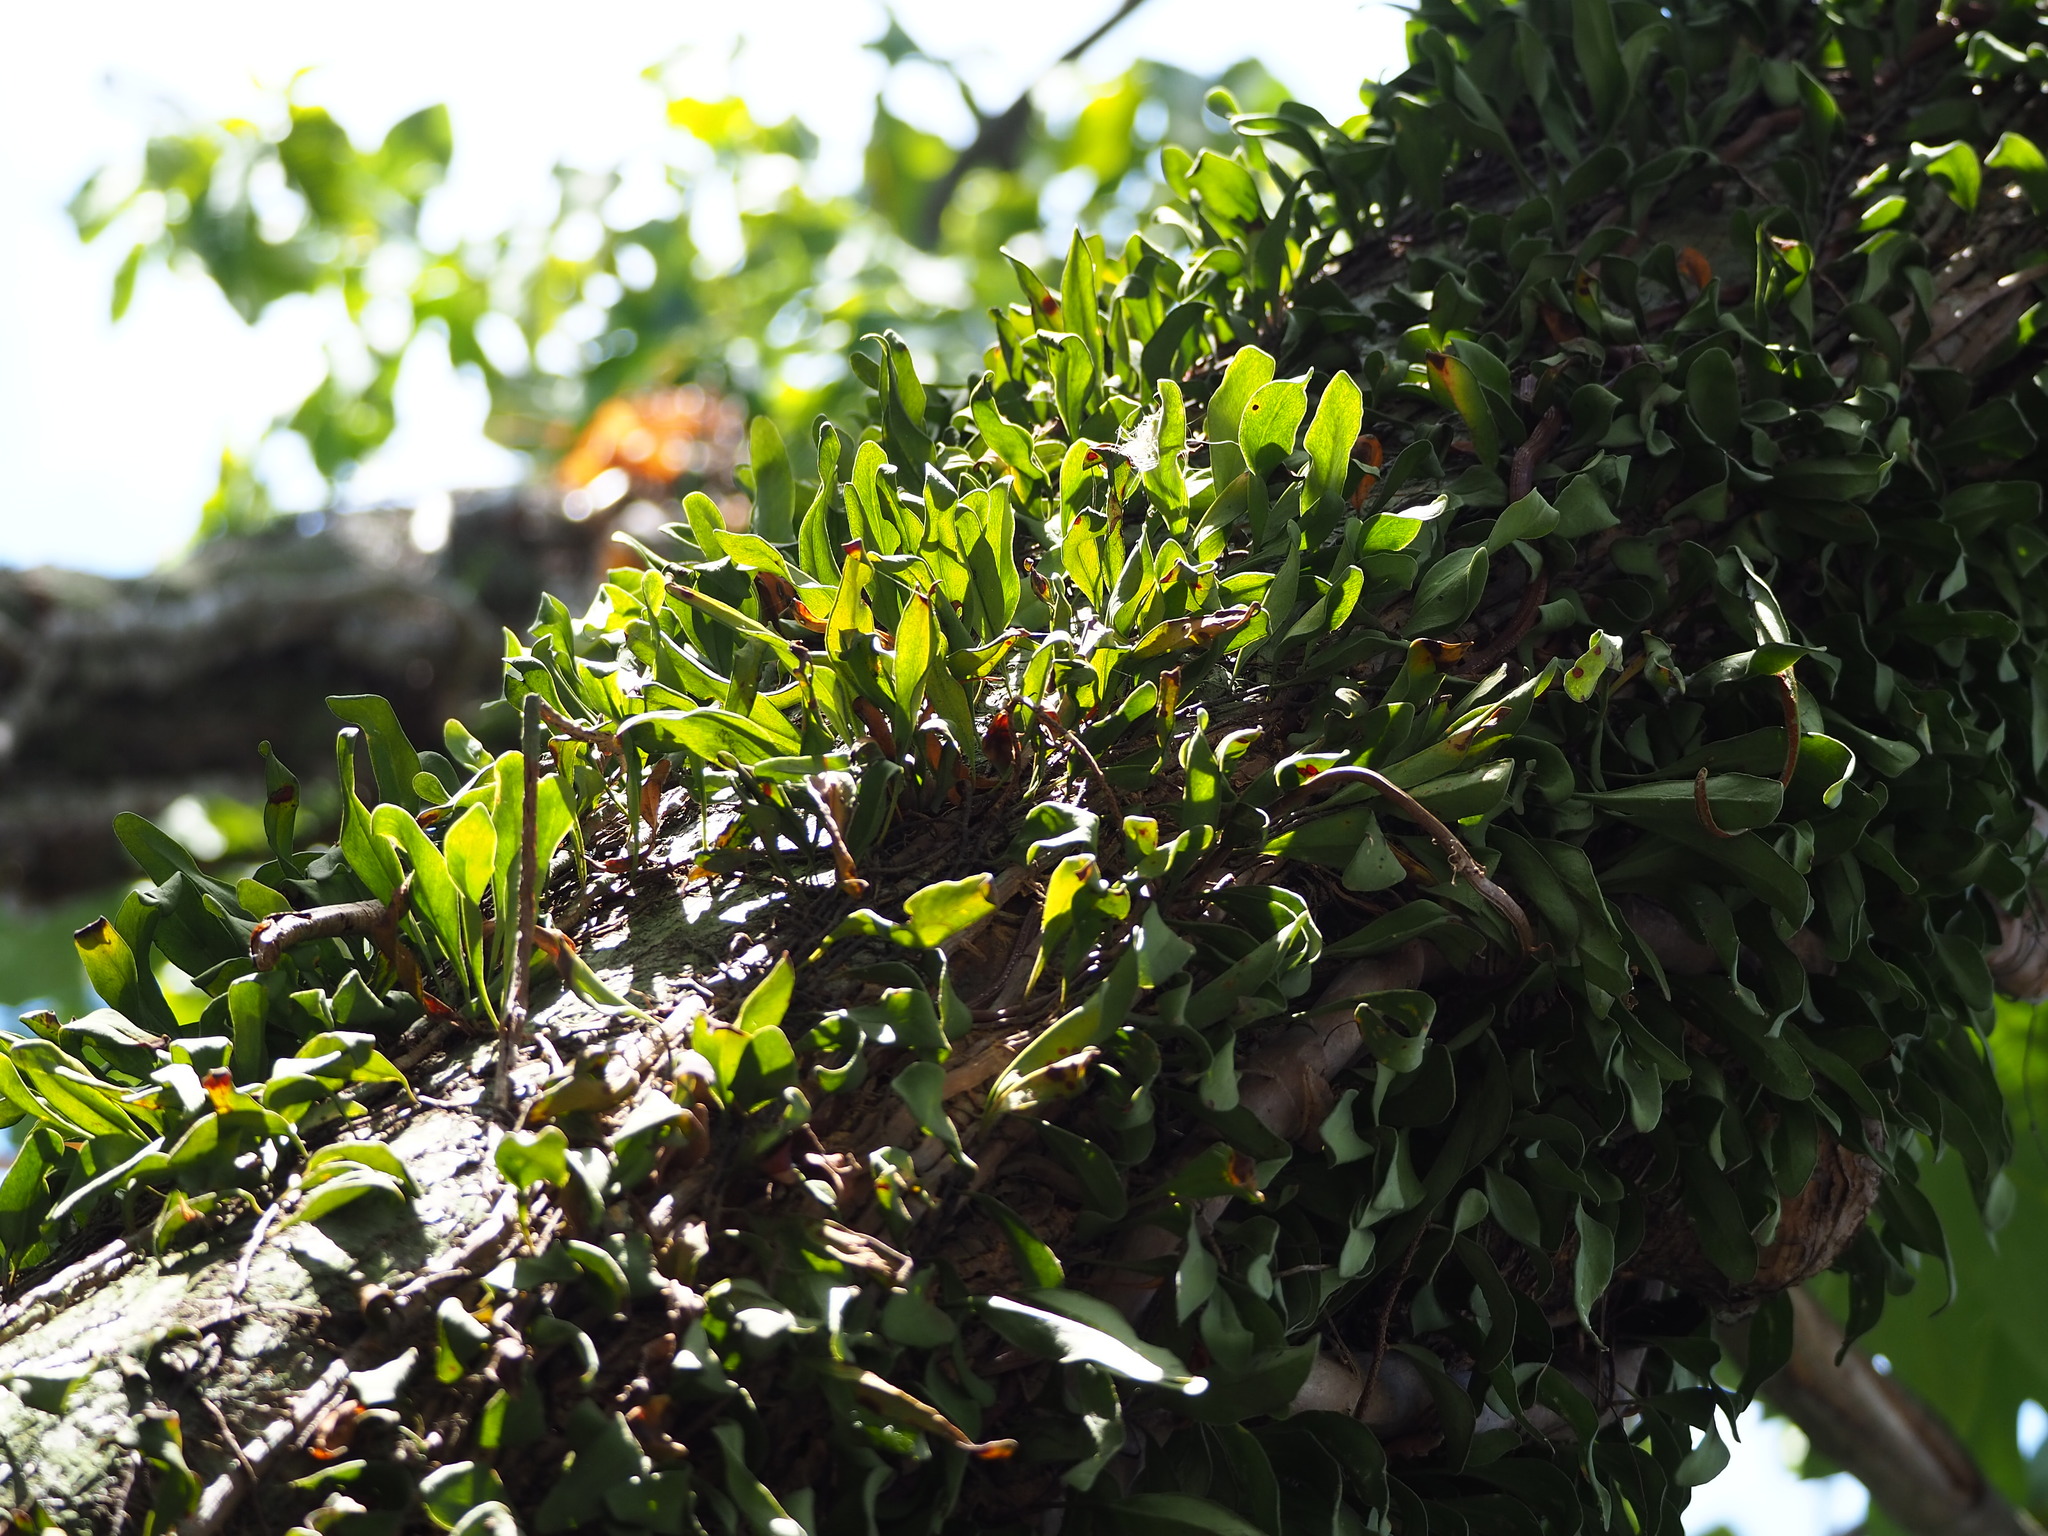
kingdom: Plantae
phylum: Tracheophyta
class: Polypodiopsida
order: Polypodiales
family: Polypodiaceae
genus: Pyrrosia
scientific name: Pyrrosia lanceolata
